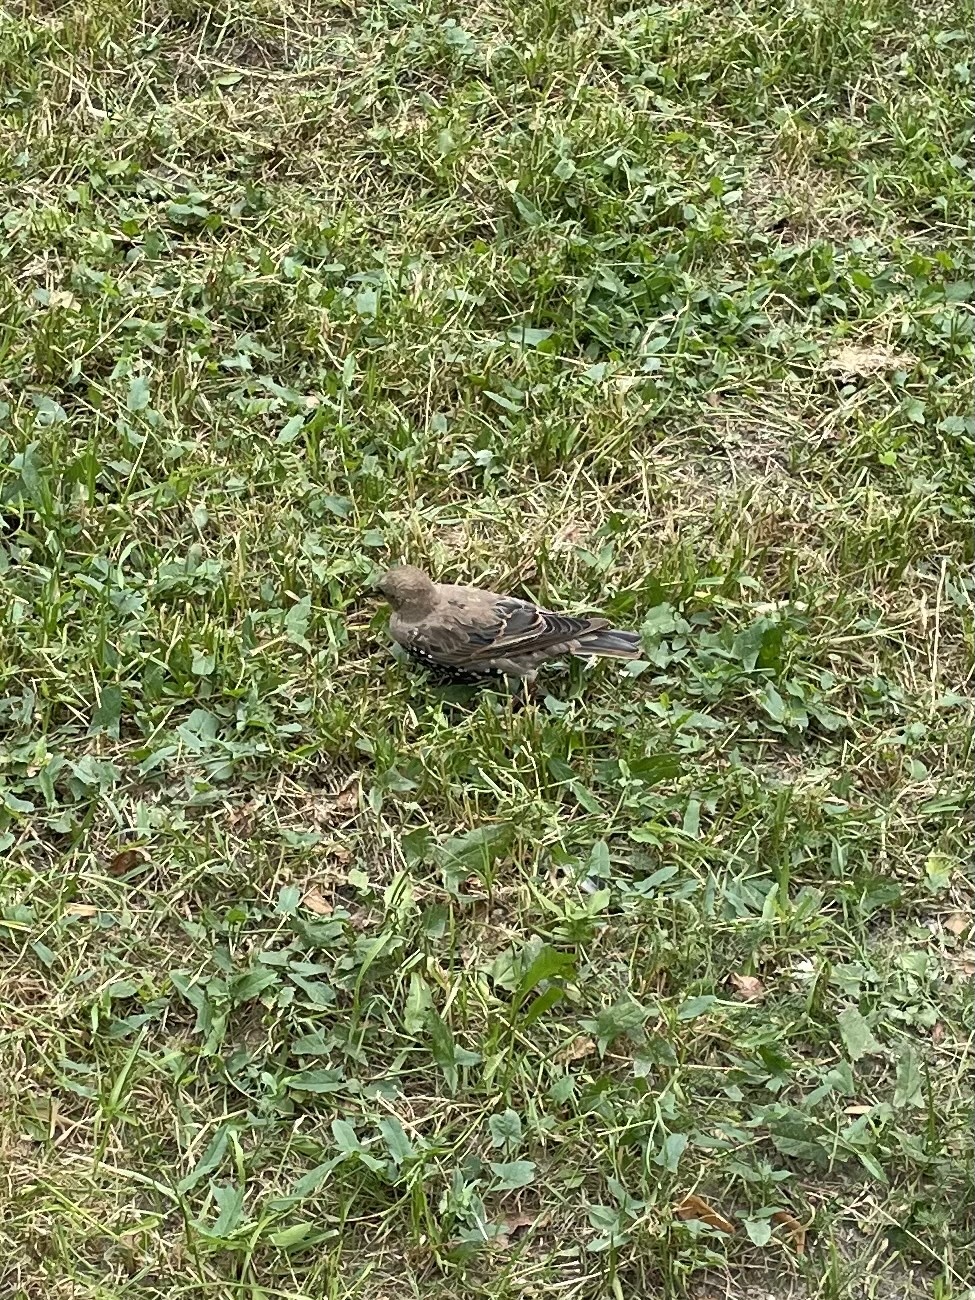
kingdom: Animalia
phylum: Chordata
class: Aves
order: Passeriformes
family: Sturnidae
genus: Sturnus
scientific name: Sturnus vulgaris
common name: Common starling
